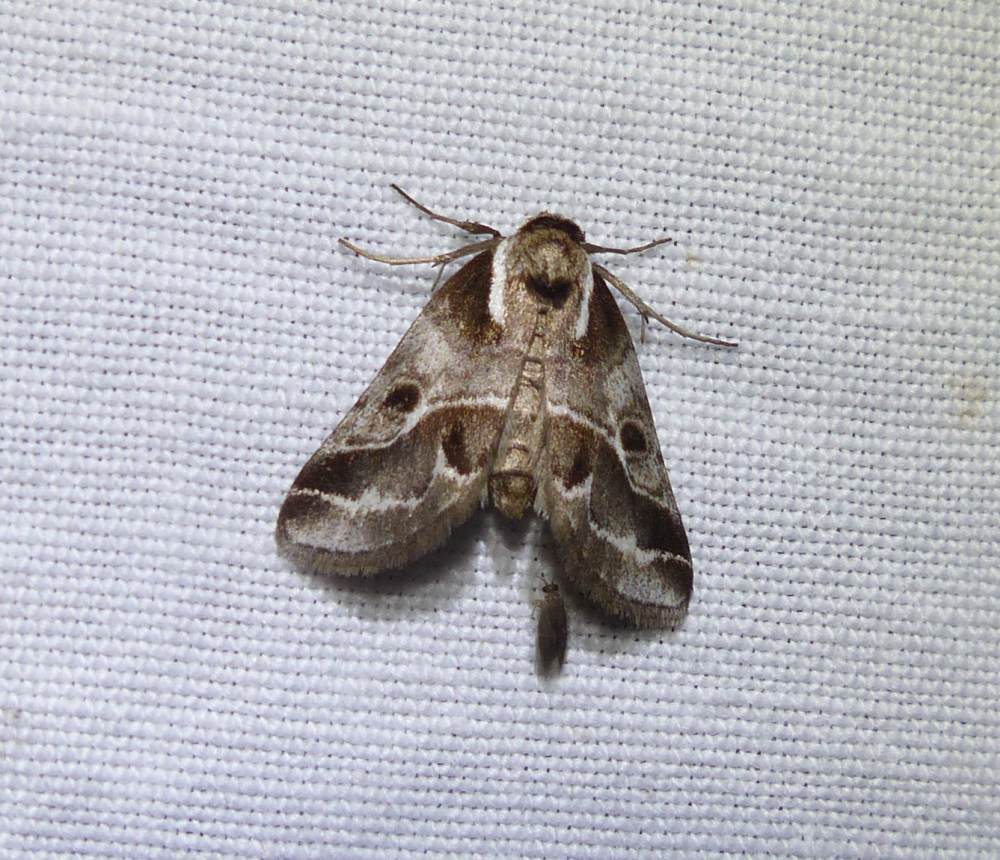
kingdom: Animalia
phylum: Arthropoda
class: Insecta
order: Lepidoptera
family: Nolidae
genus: Baileya
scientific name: Baileya doubledayi
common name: Doubleday's baileya moth
